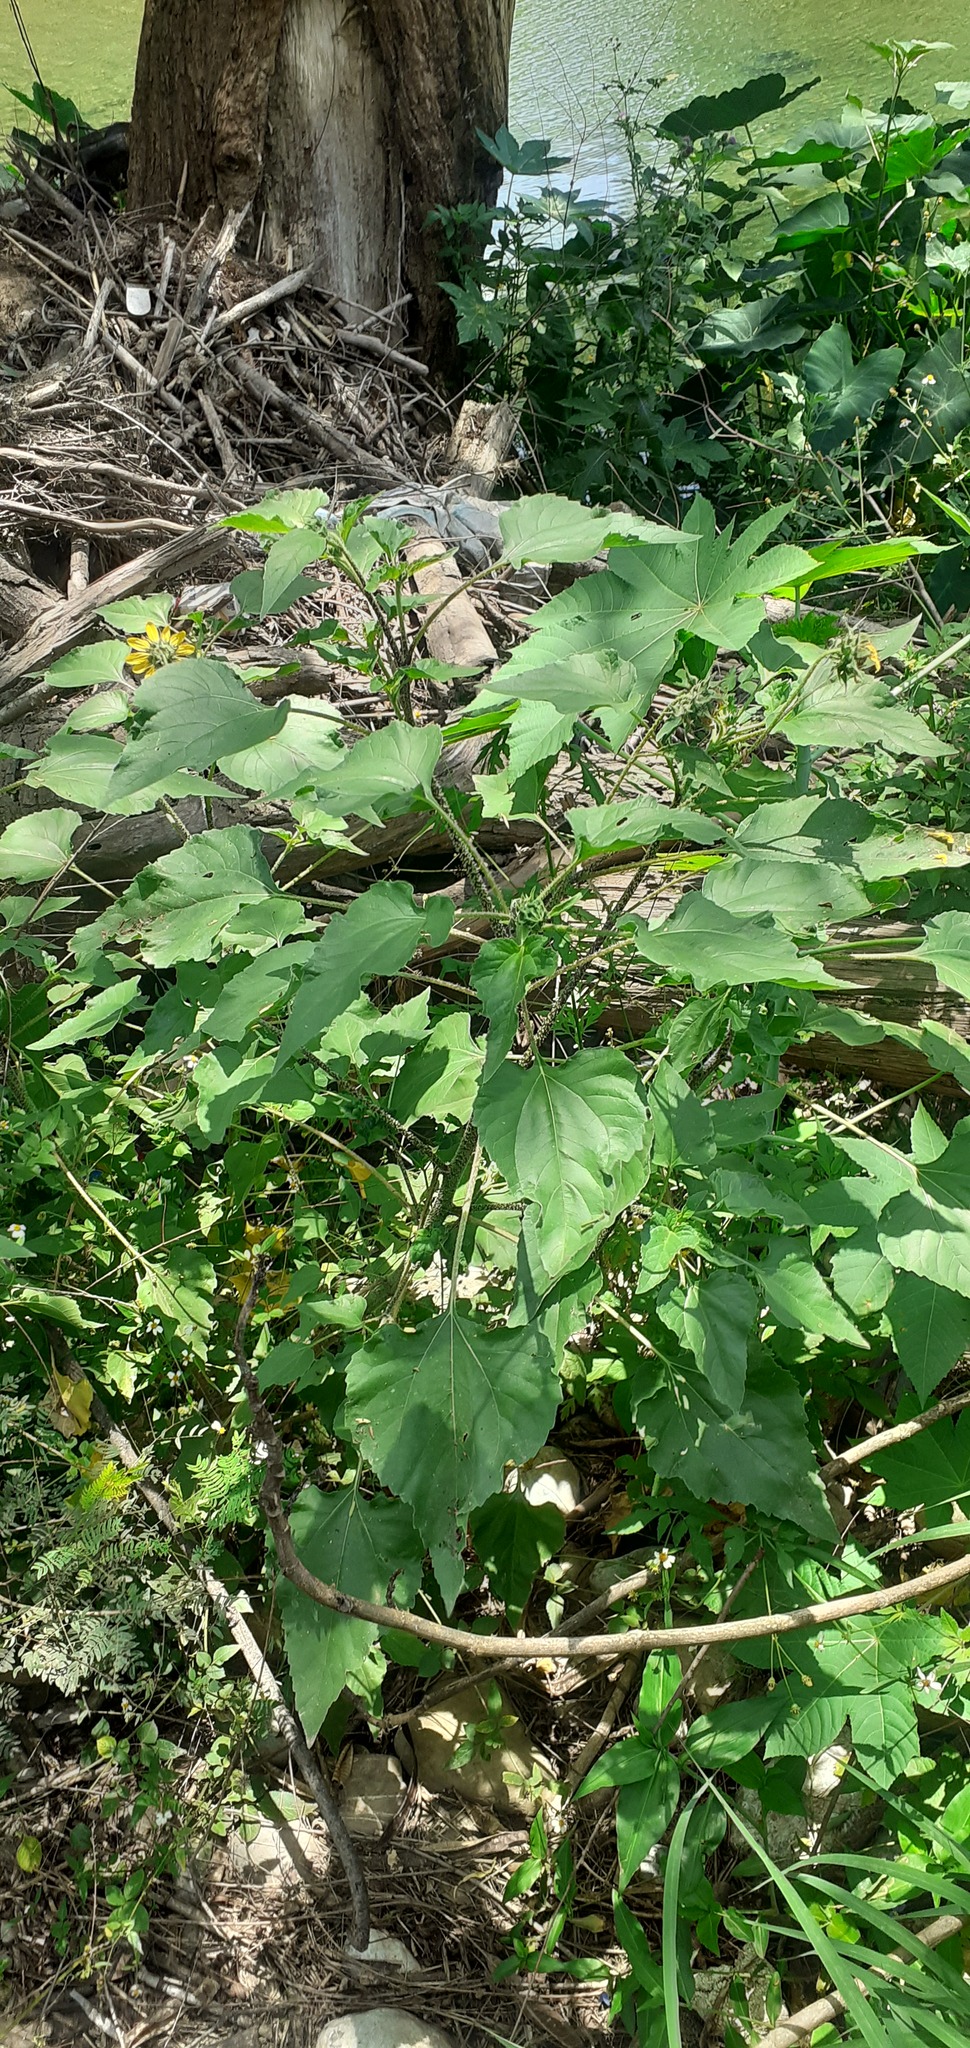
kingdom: Plantae
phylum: Tracheophyta
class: Magnoliopsida
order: Asterales
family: Asteraceae
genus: Helianthus
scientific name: Helianthus annuus
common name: Sunflower
